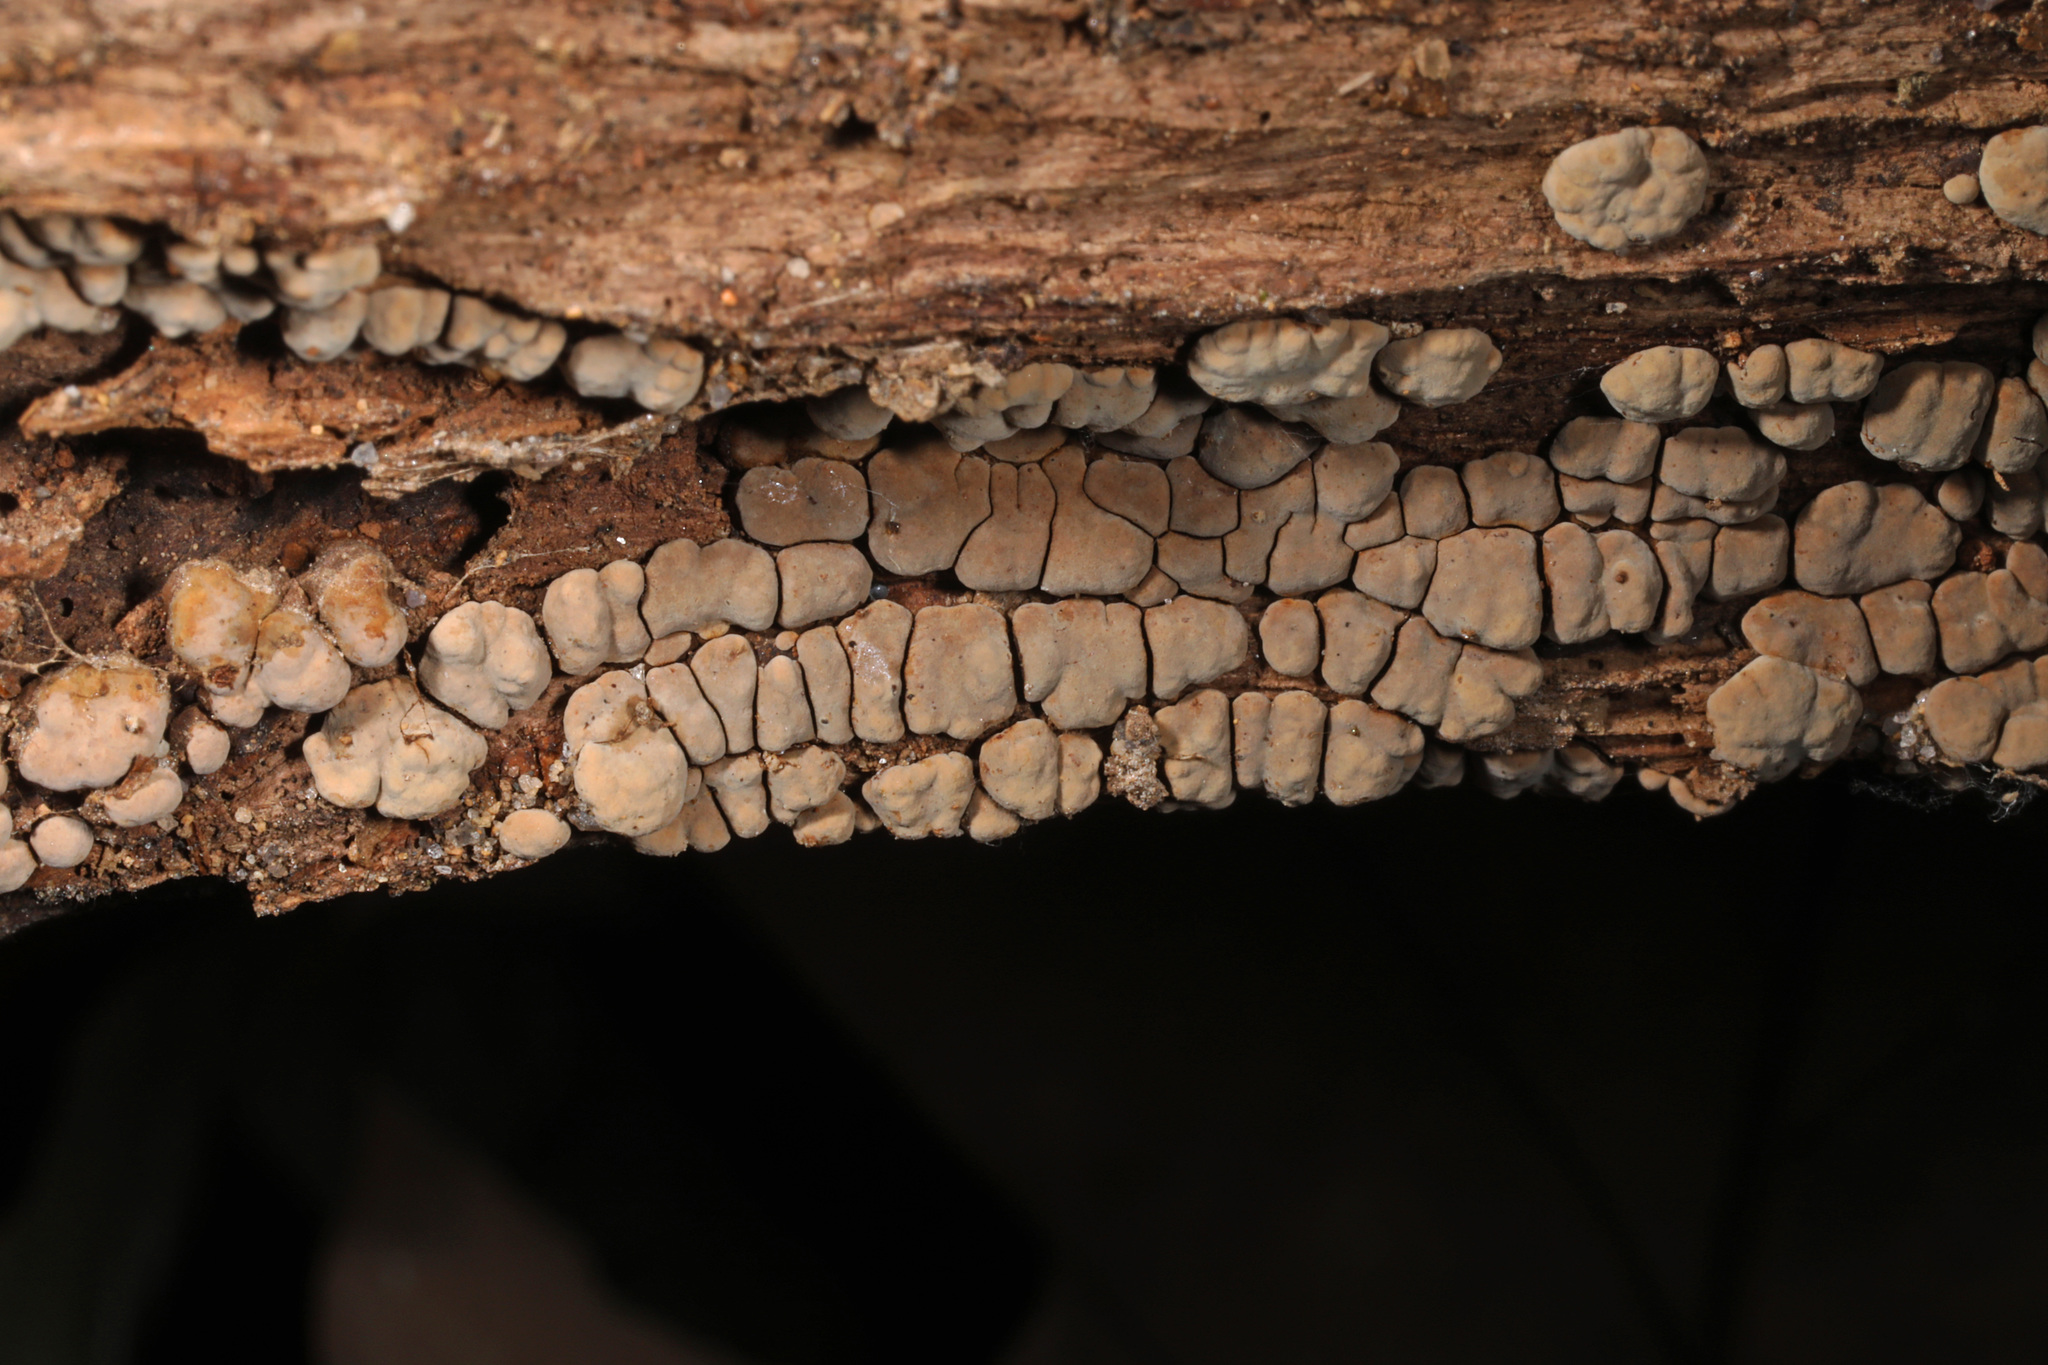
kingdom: Fungi
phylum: Basidiomycota
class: Agaricomycetes
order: Russulales
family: Stereaceae
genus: Xylobolus
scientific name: Xylobolus frustulatus
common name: Ceramic parchment
